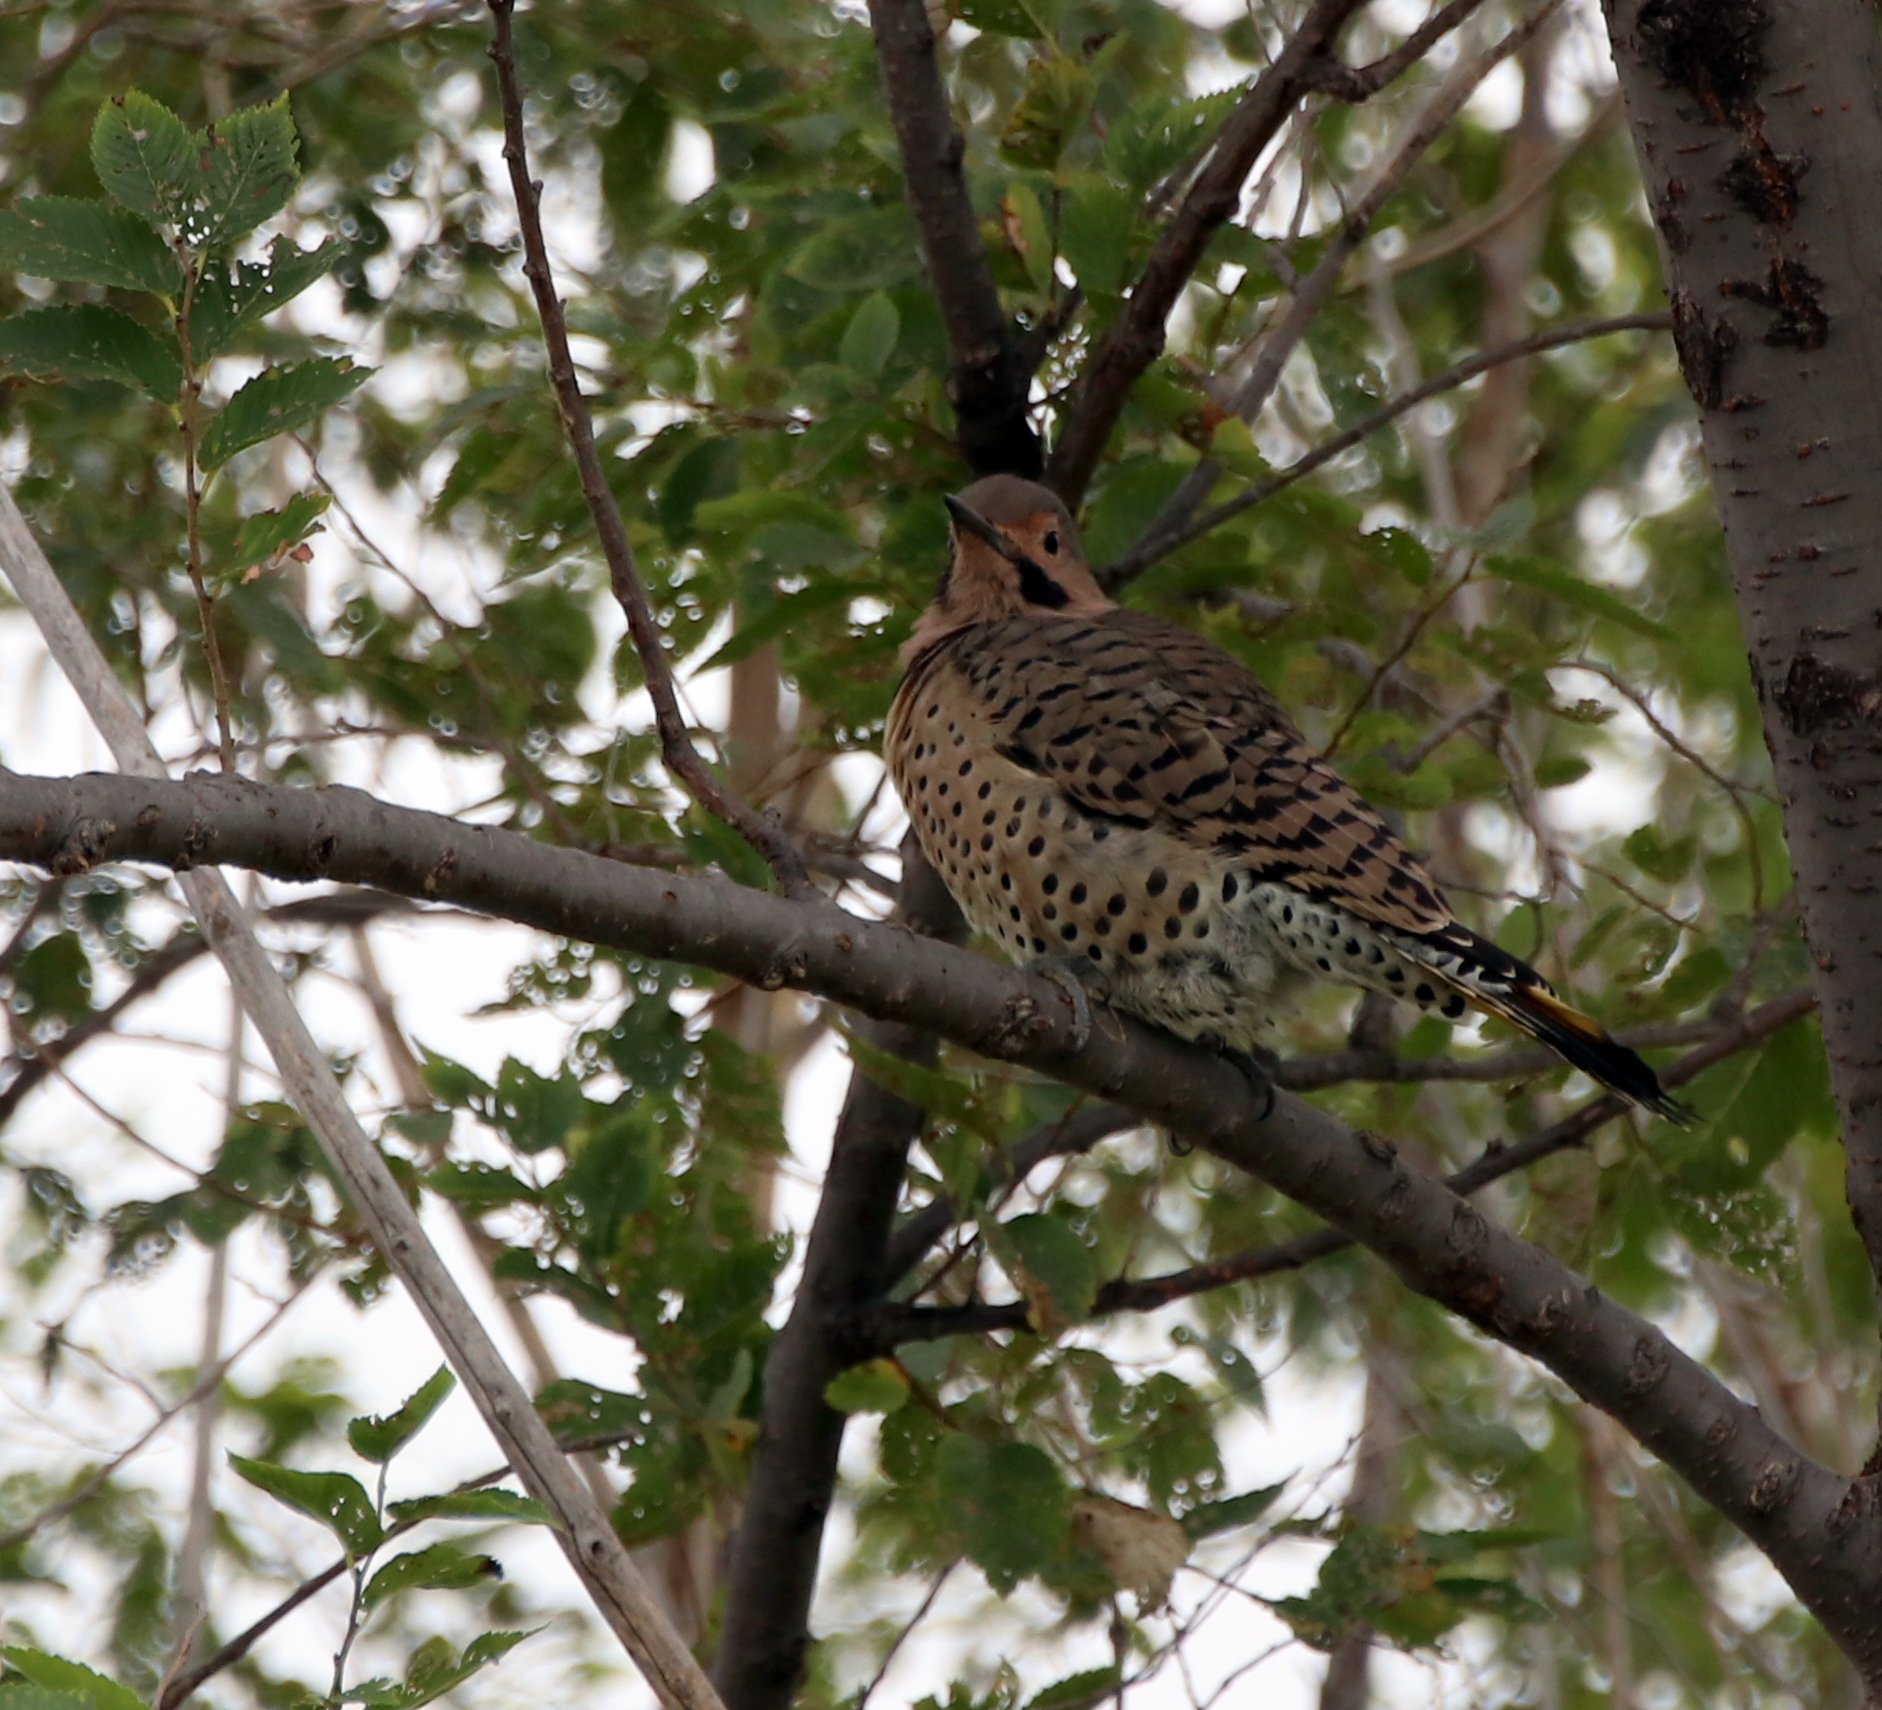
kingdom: Animalia
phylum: Chordata
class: Aves
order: Piciformes
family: Picidae
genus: Colaptes
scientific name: Colaptes auratus
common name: Northern flicker
